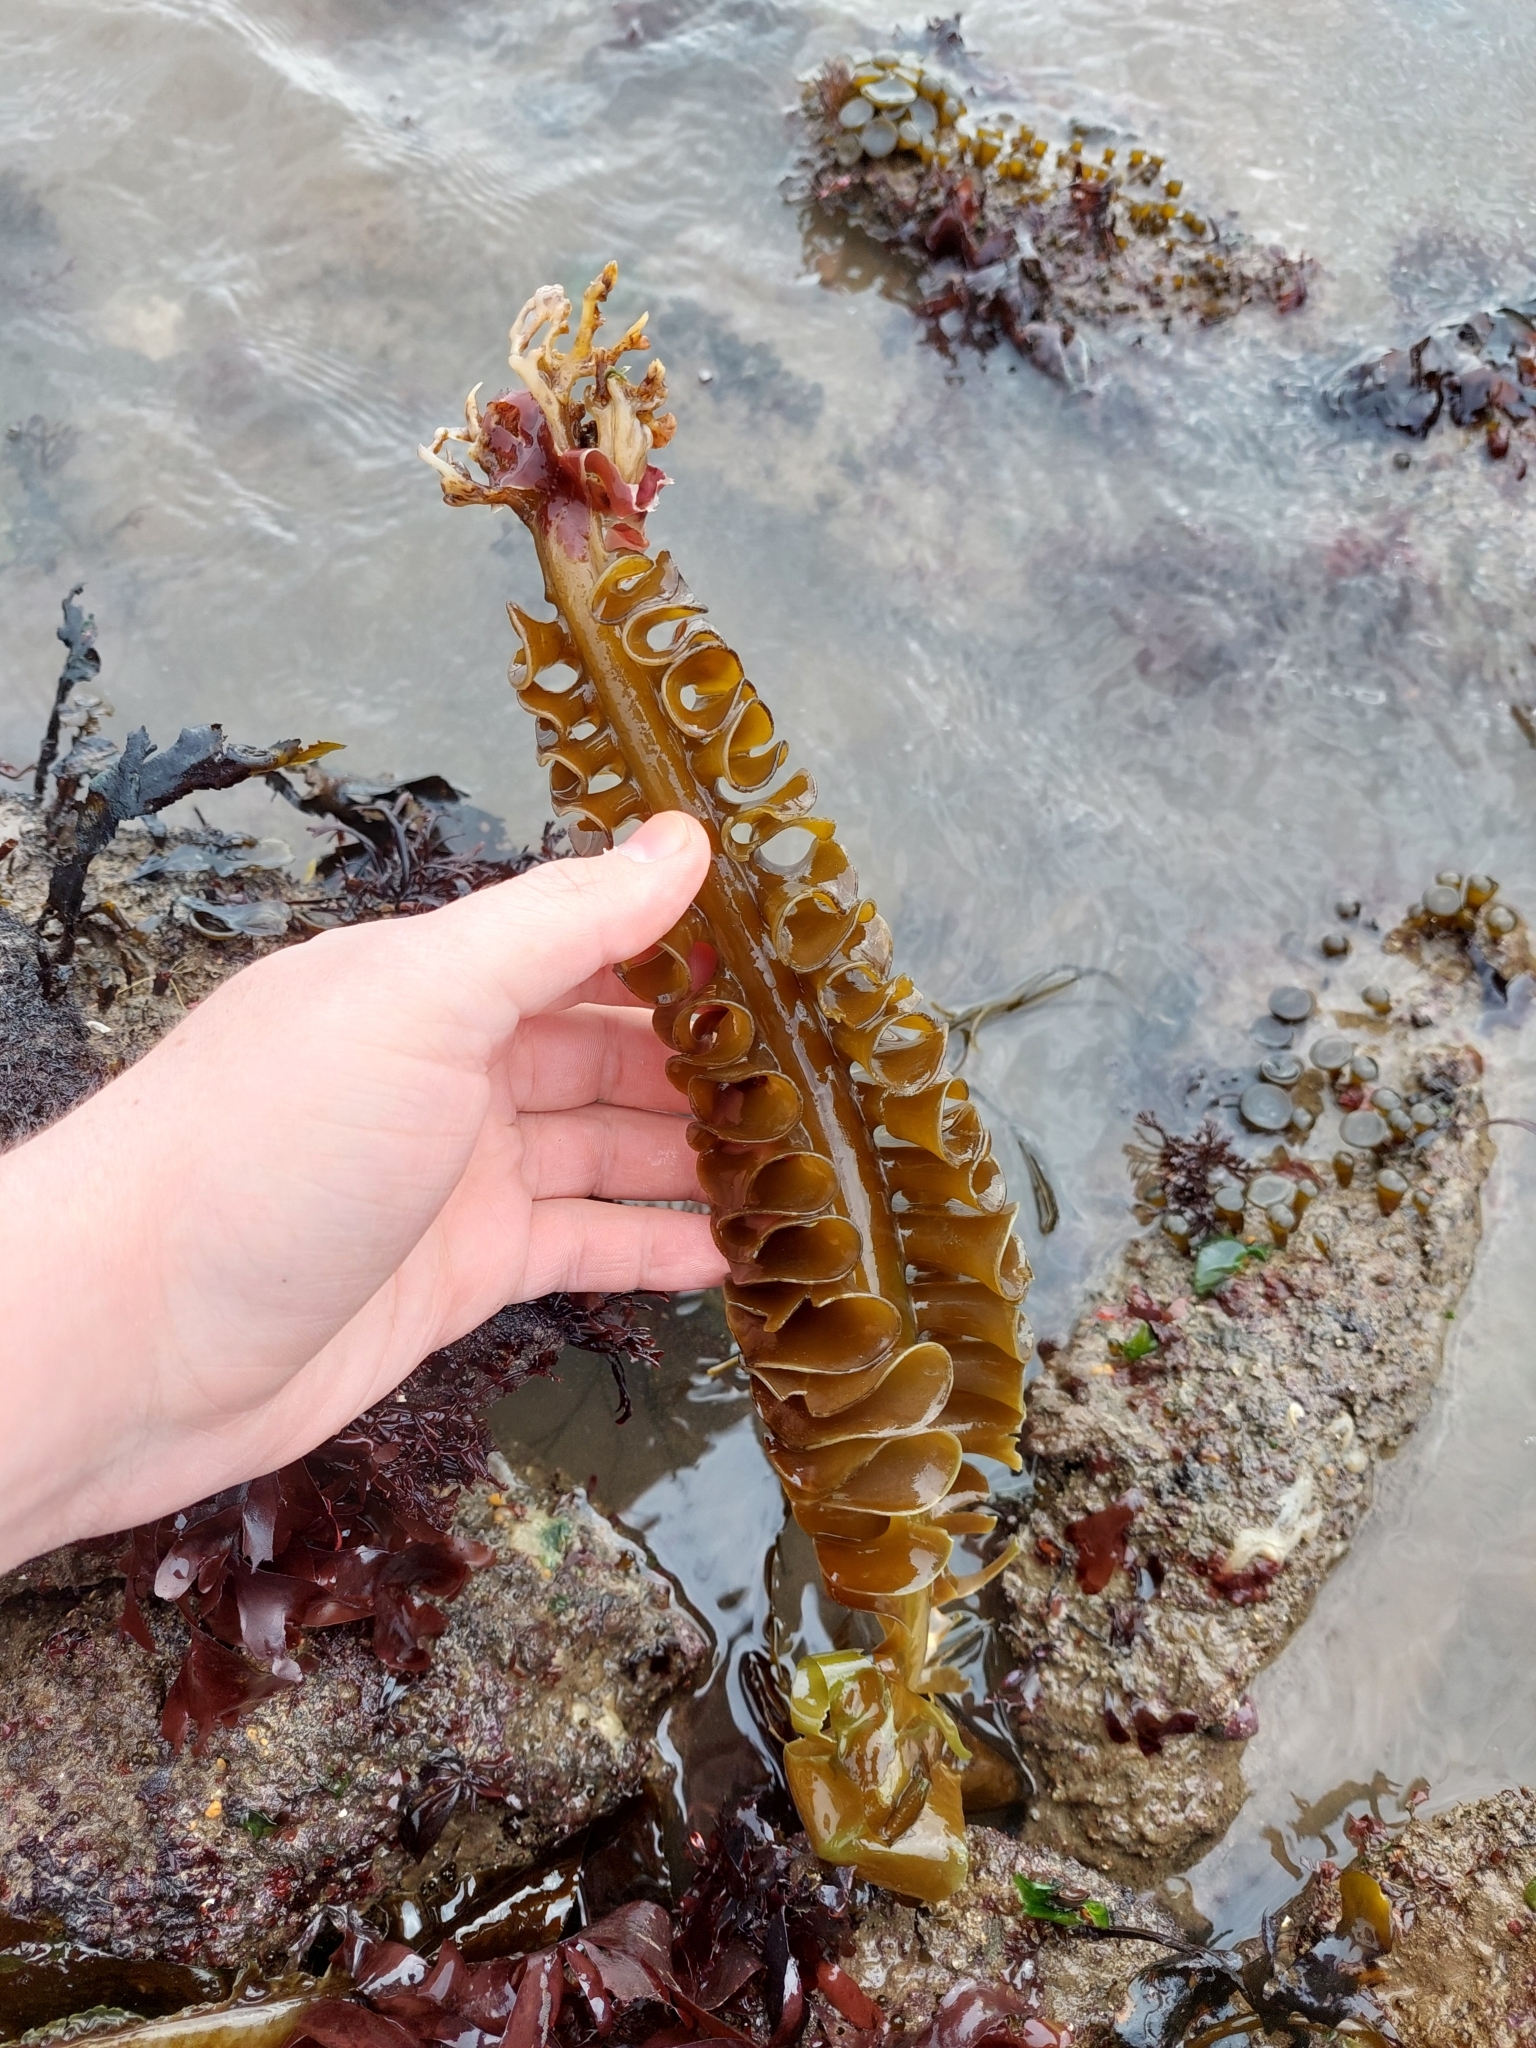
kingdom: Chromista
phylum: Ochrophyta
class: Phaeophyceae
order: Laminariales
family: Alariaceae
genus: Undaria
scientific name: Undaria pinnatifida
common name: Asian kelp
